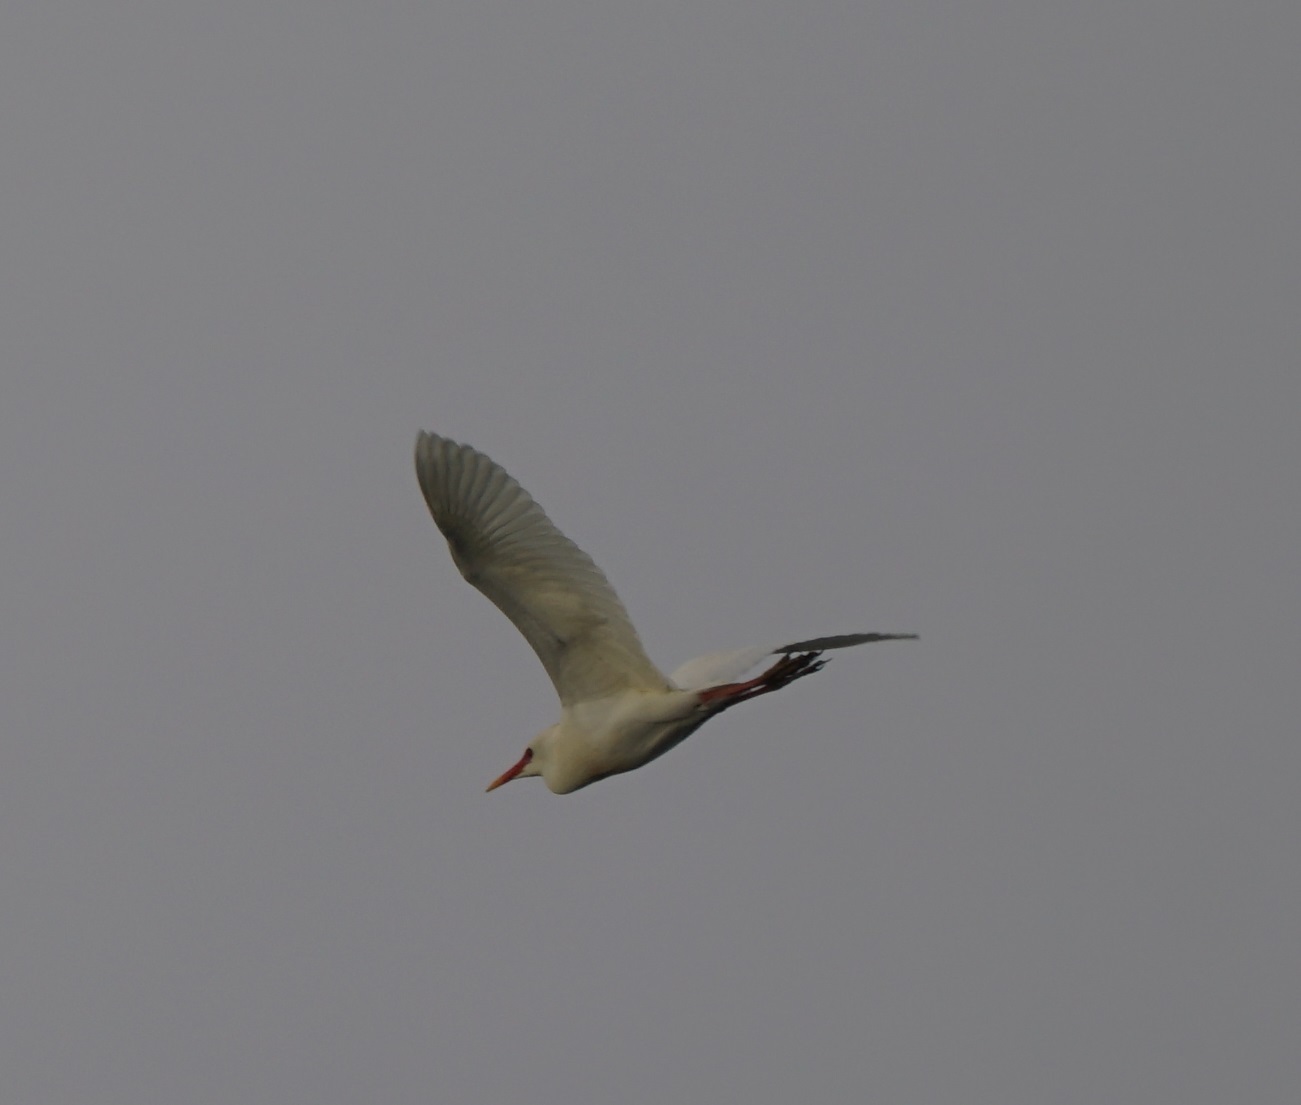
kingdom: Animalia
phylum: Chordata
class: Aves
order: Pelecaniformes
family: Ardeidae
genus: Bubulcus
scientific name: Bubulcus ibis
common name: Cattle egret
